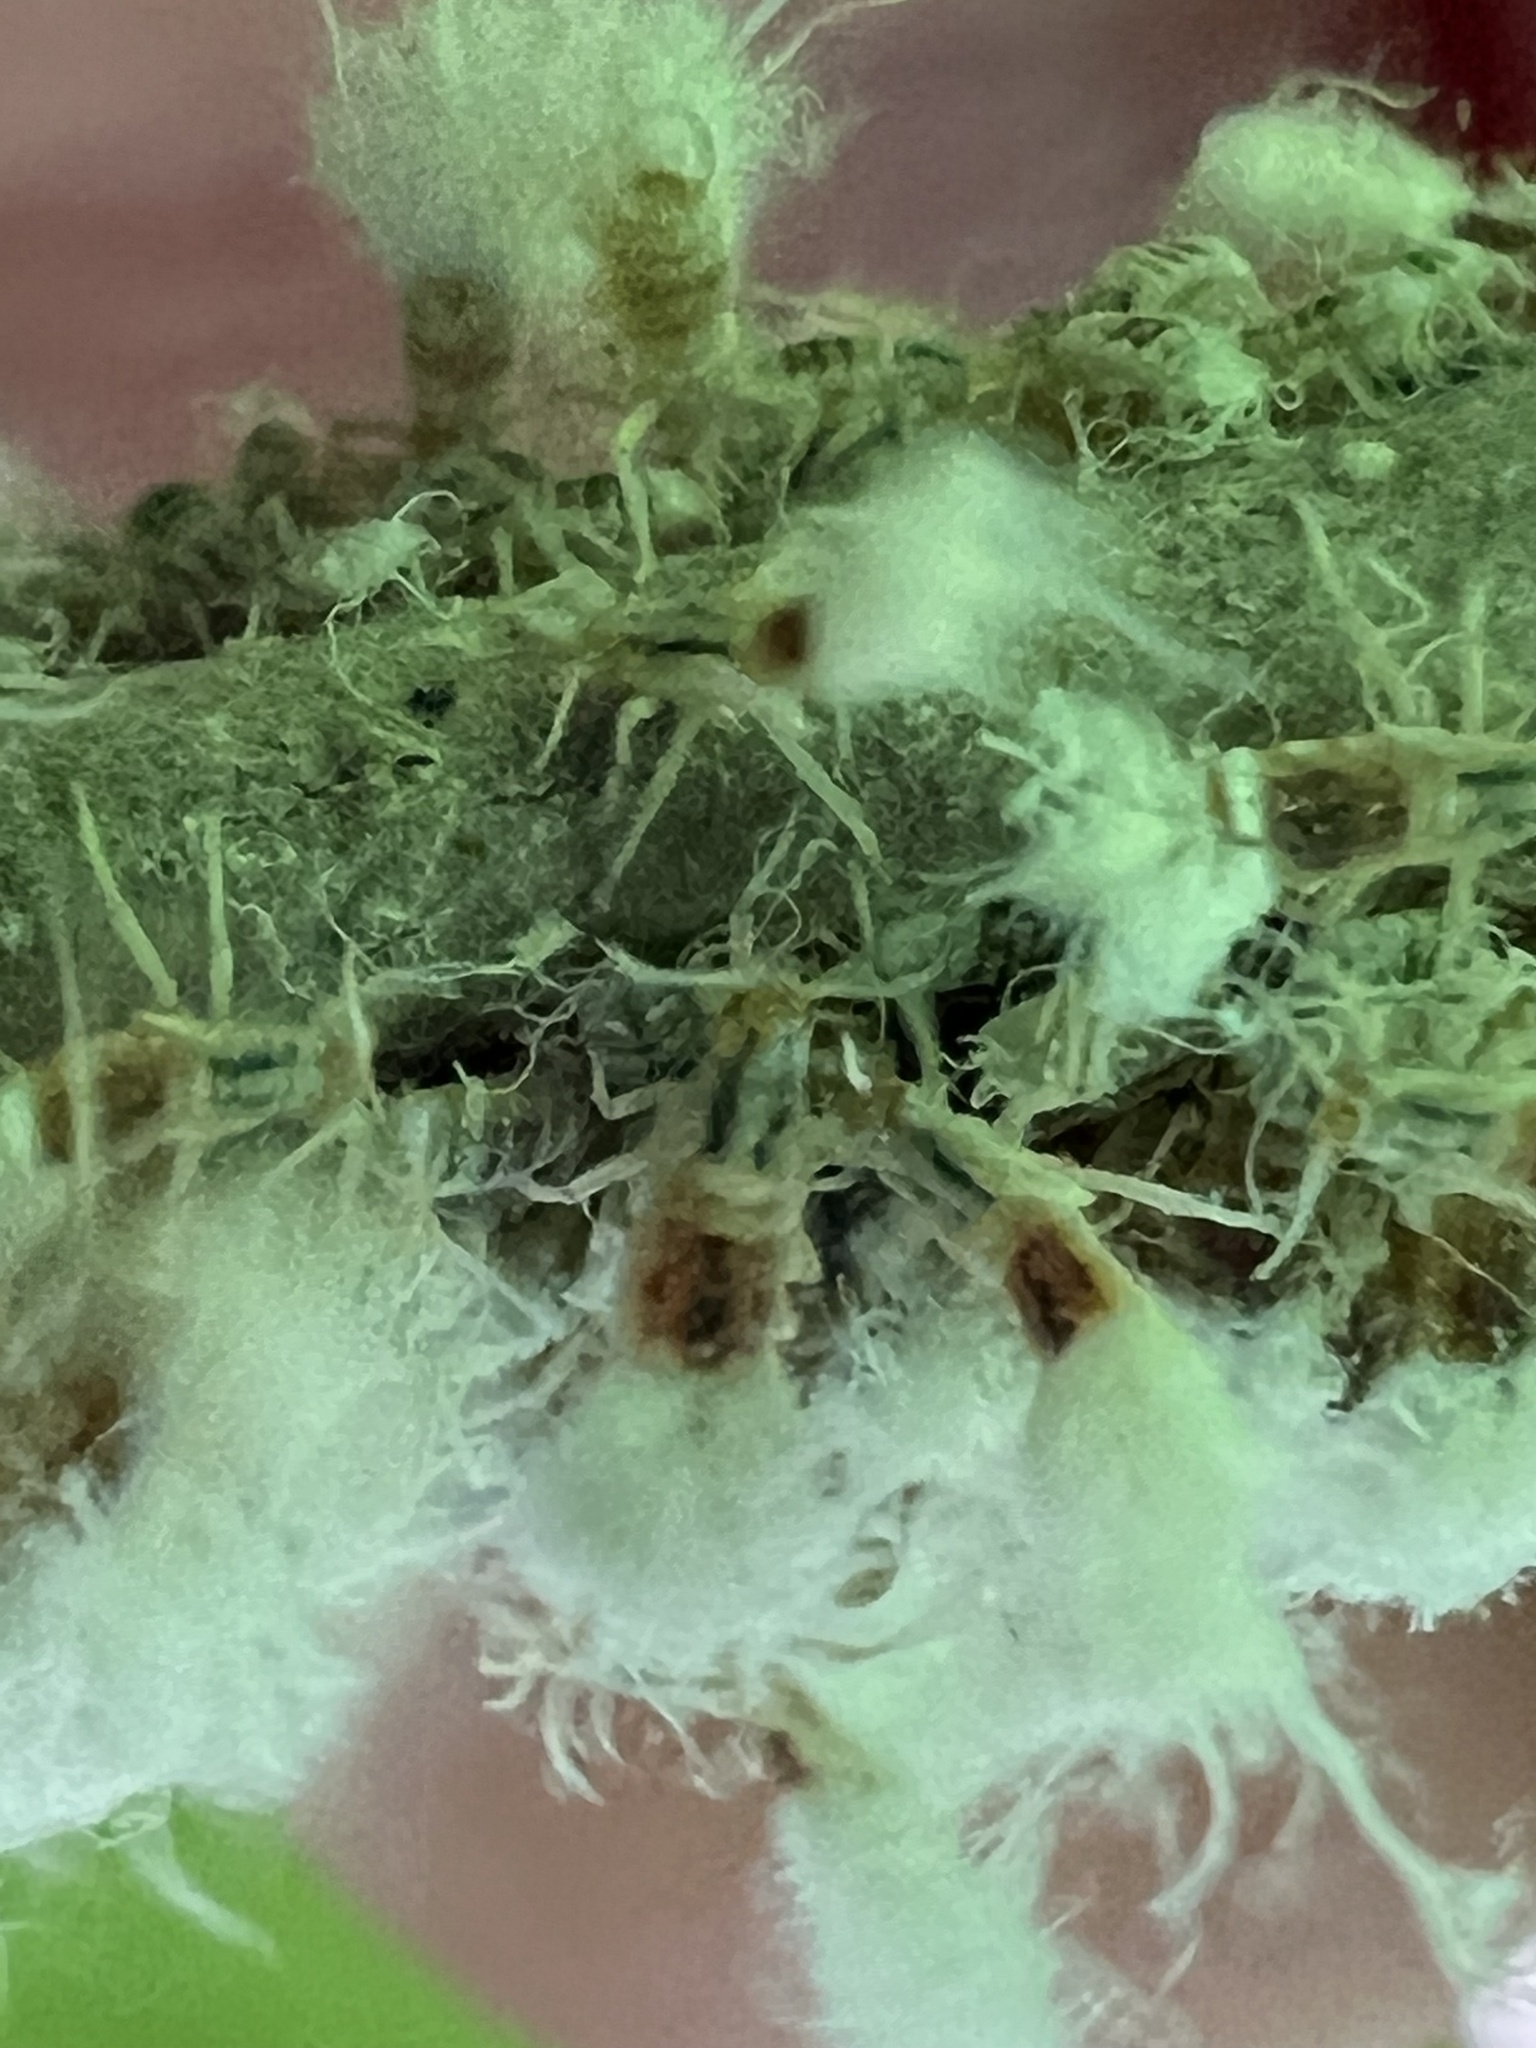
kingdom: Animalia
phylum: Arthropoda
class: Insecta
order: Hemiptera
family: Aphididae
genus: Grylloprociphilus
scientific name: Grylloprociphilus imbricator
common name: Beech blight aphid
